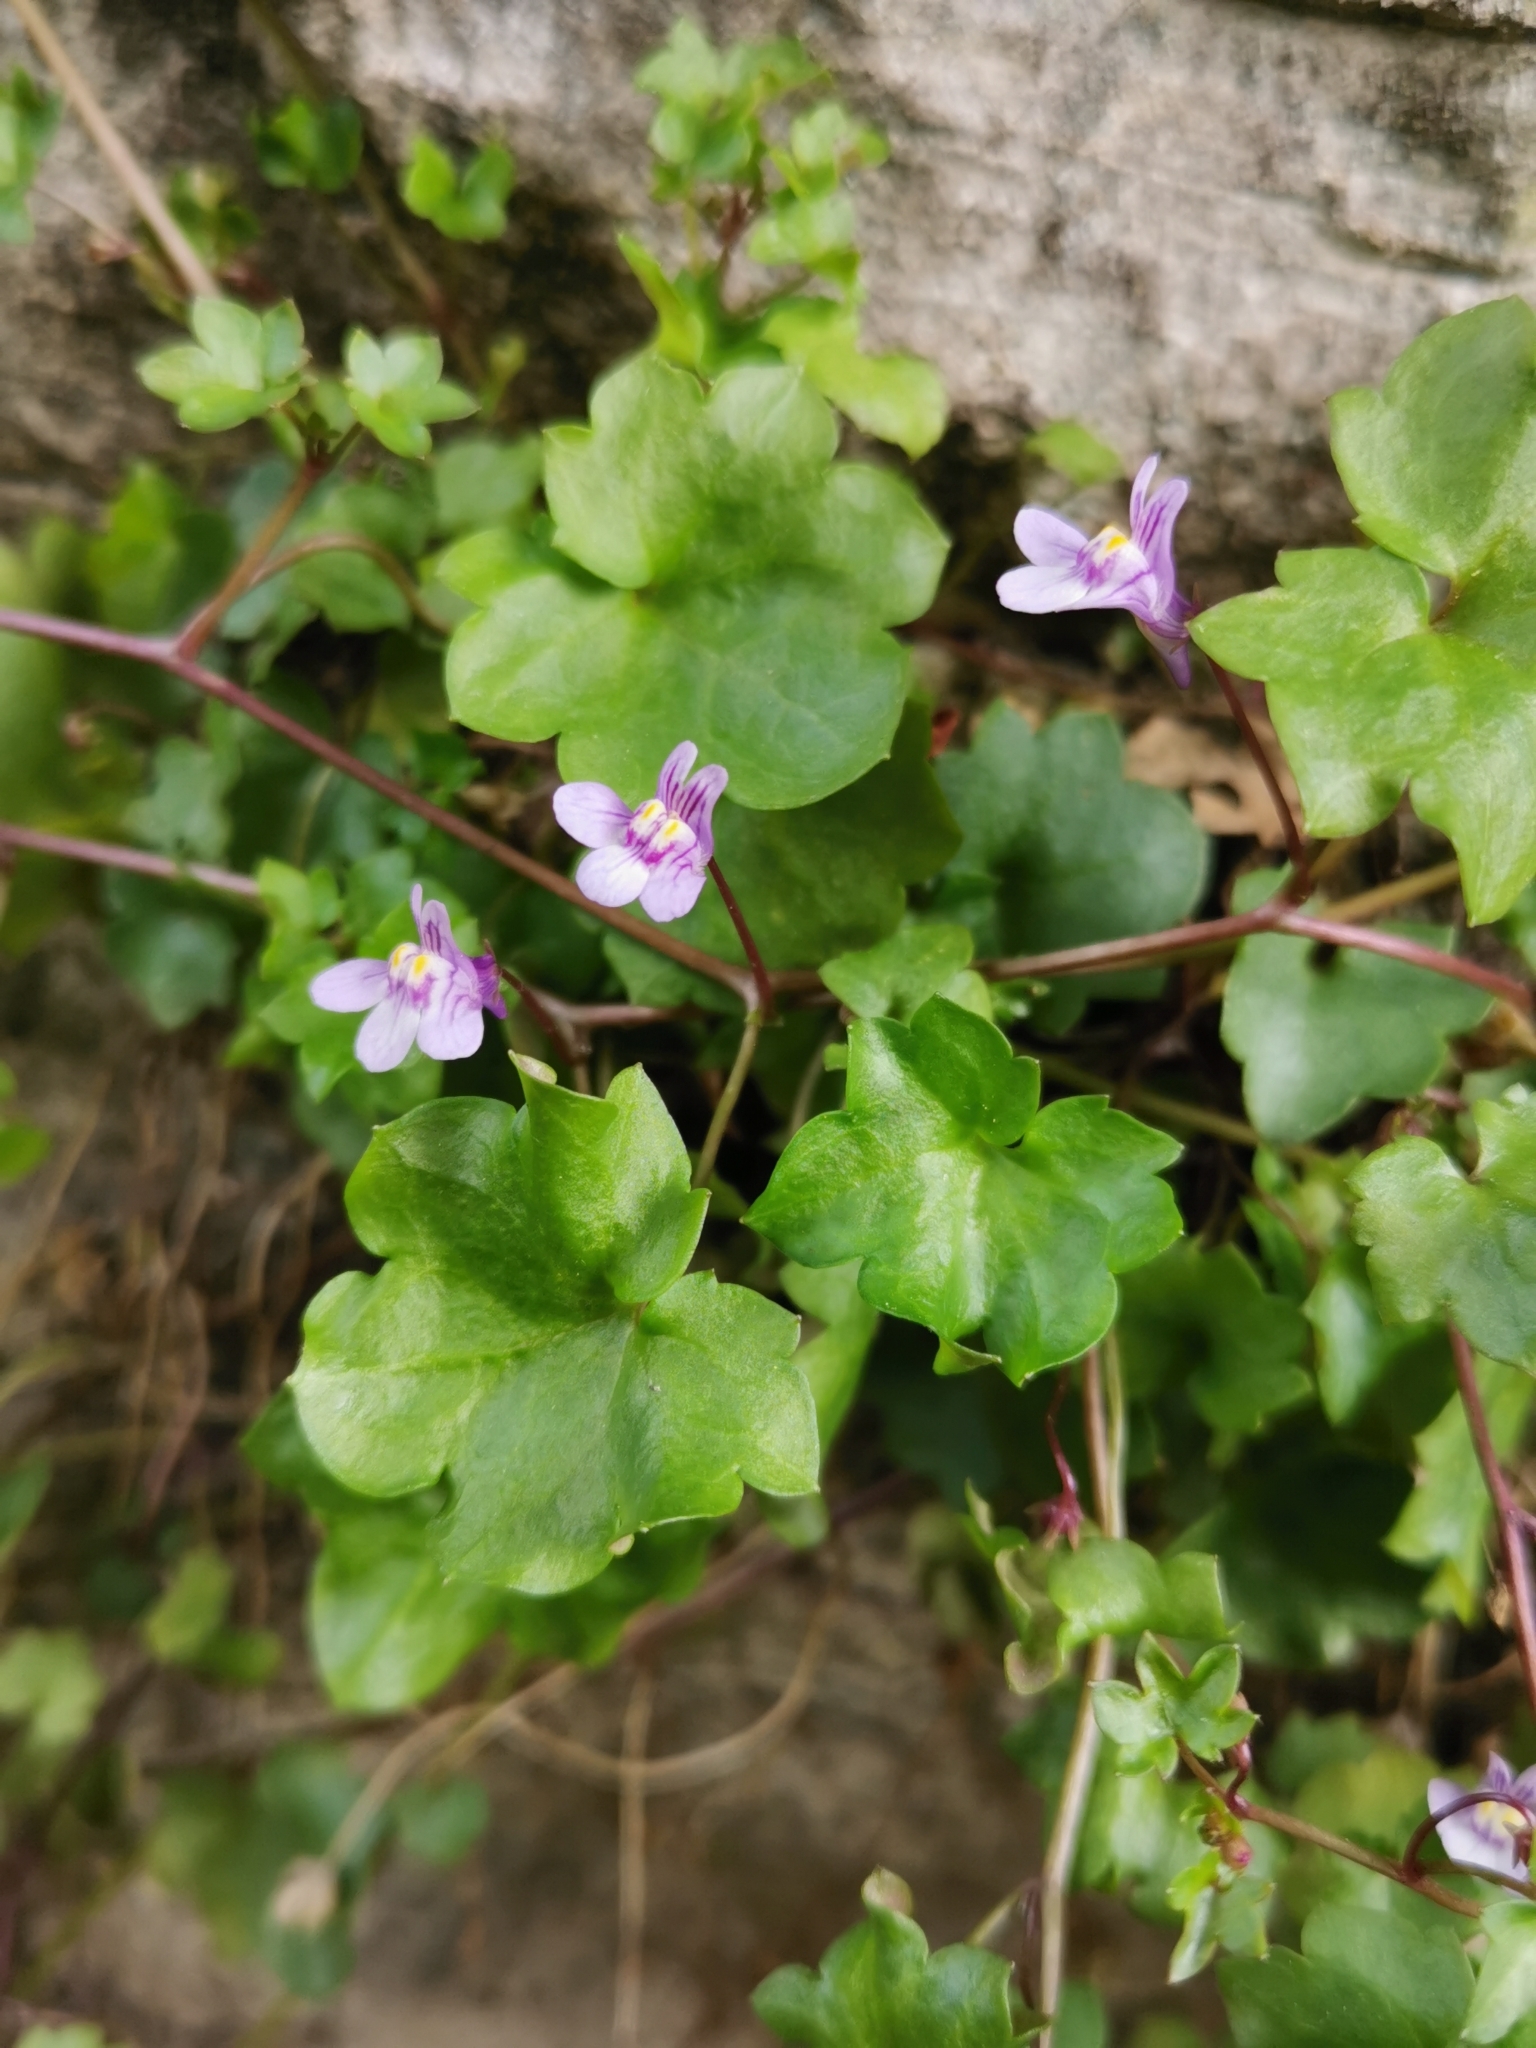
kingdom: Plantae
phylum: Tracheophyta
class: Magnoliopsida
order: Lamiales
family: Plantaginaceae
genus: Cymbalaria
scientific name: Cymbalaria muralis
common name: Ivy-leaved toadflax
